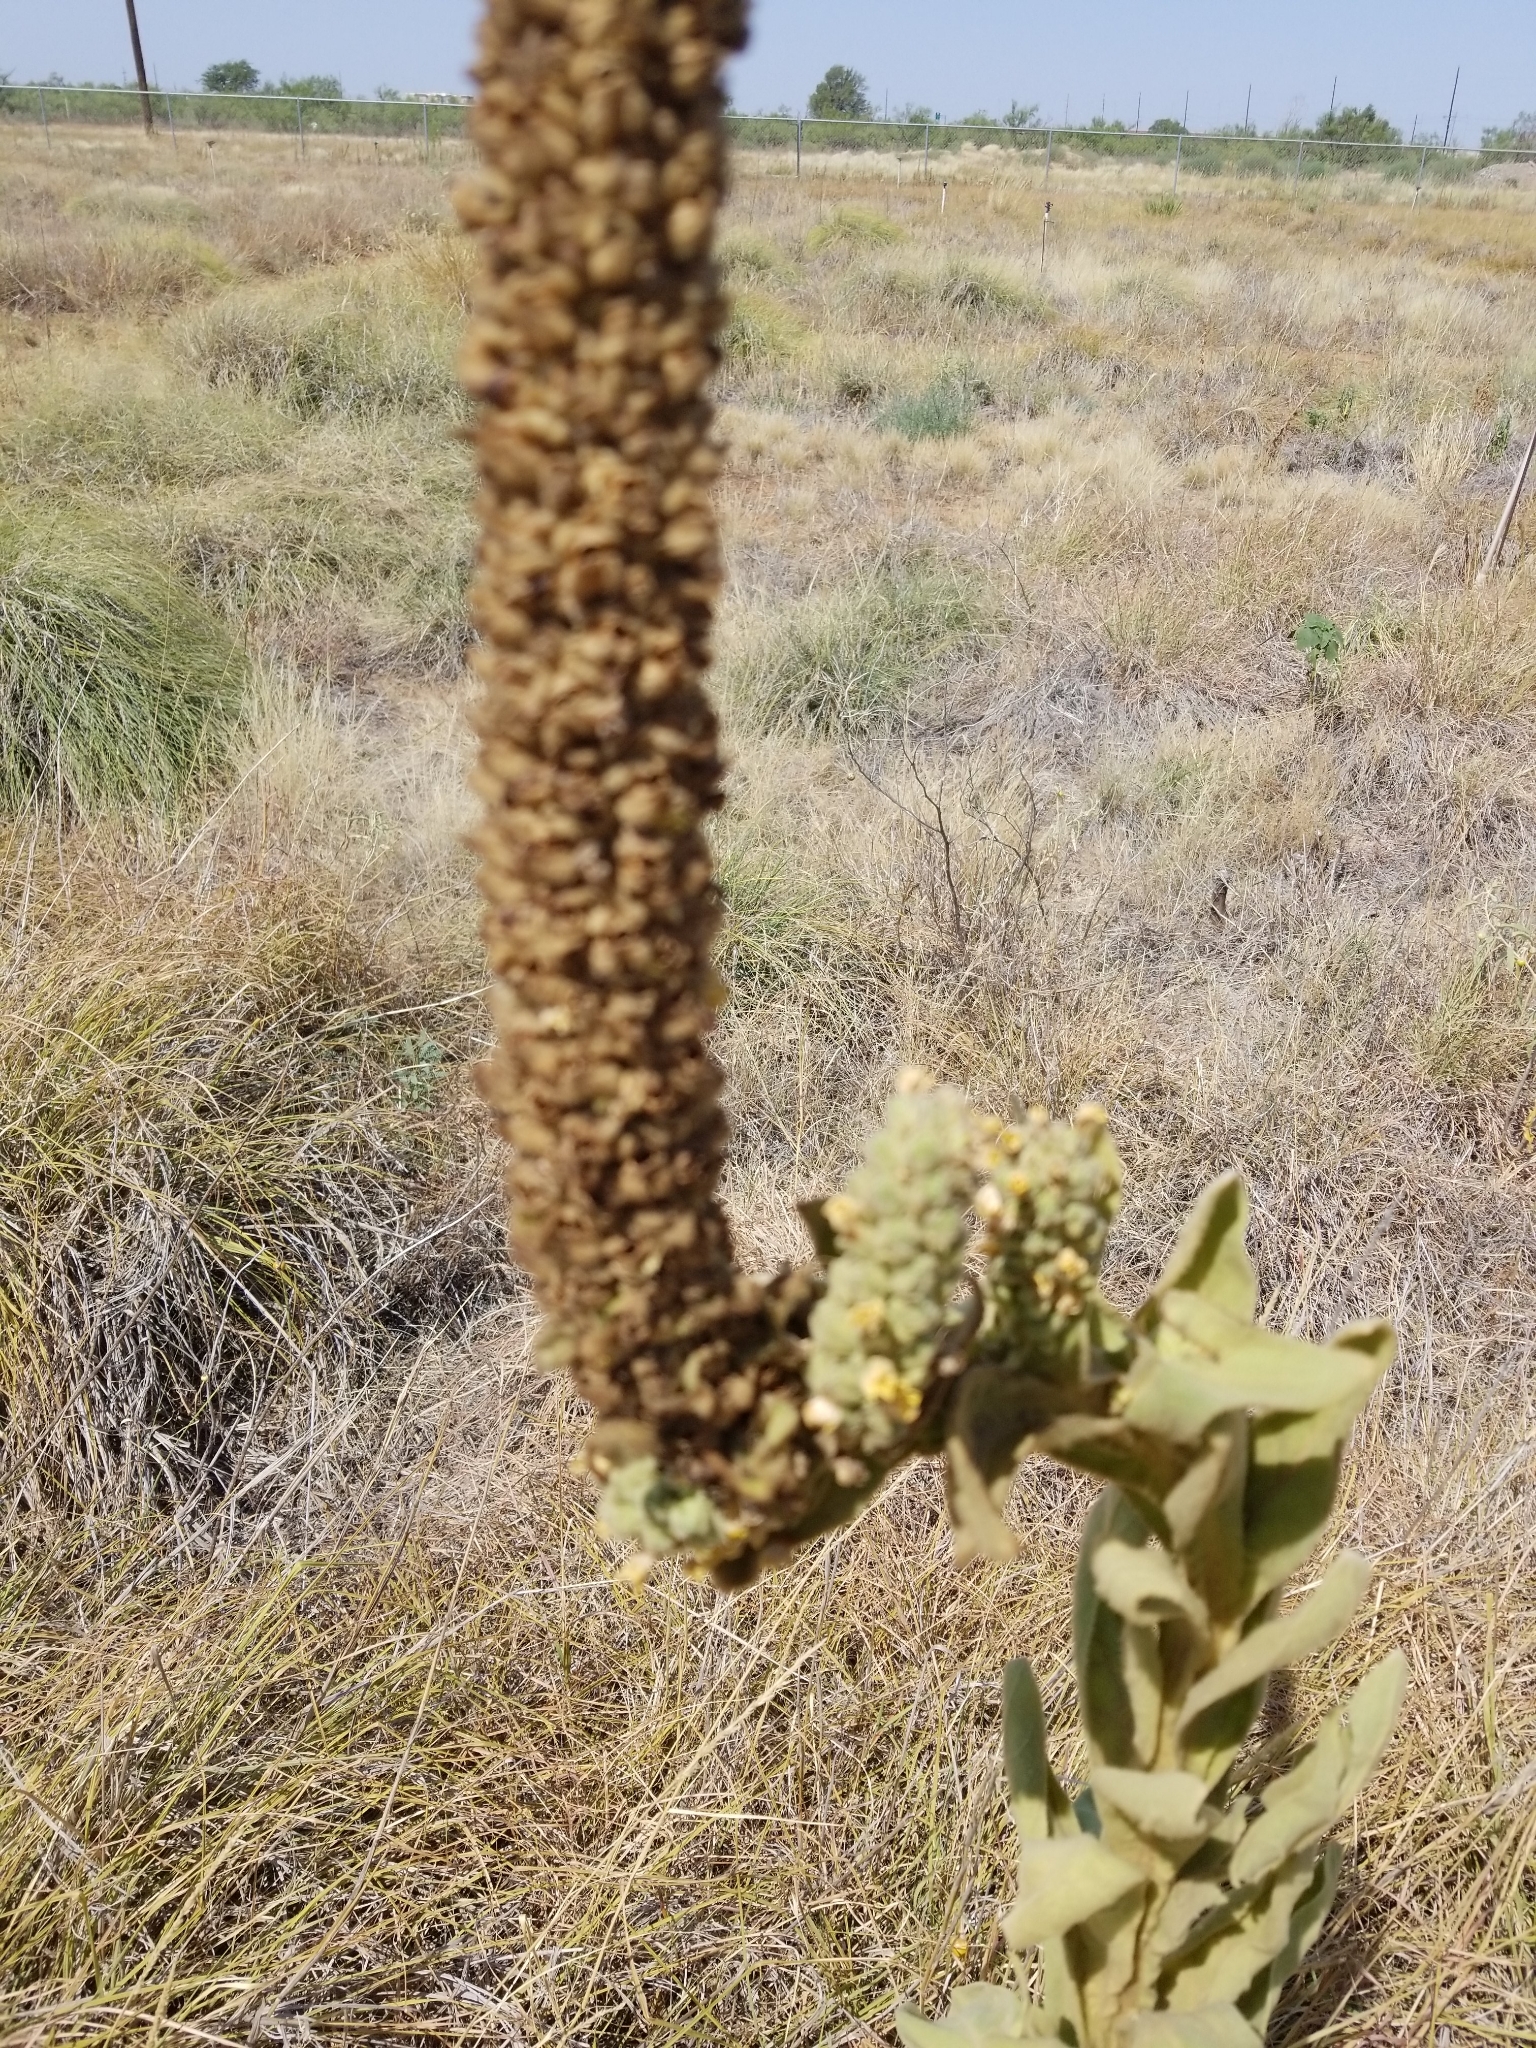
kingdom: Plantae
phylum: Tracheophyta
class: Magnoliopsida
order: Lamiales
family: Scrophulariaceae
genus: Verbascum
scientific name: Verbascum thapsus
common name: Common mullein
